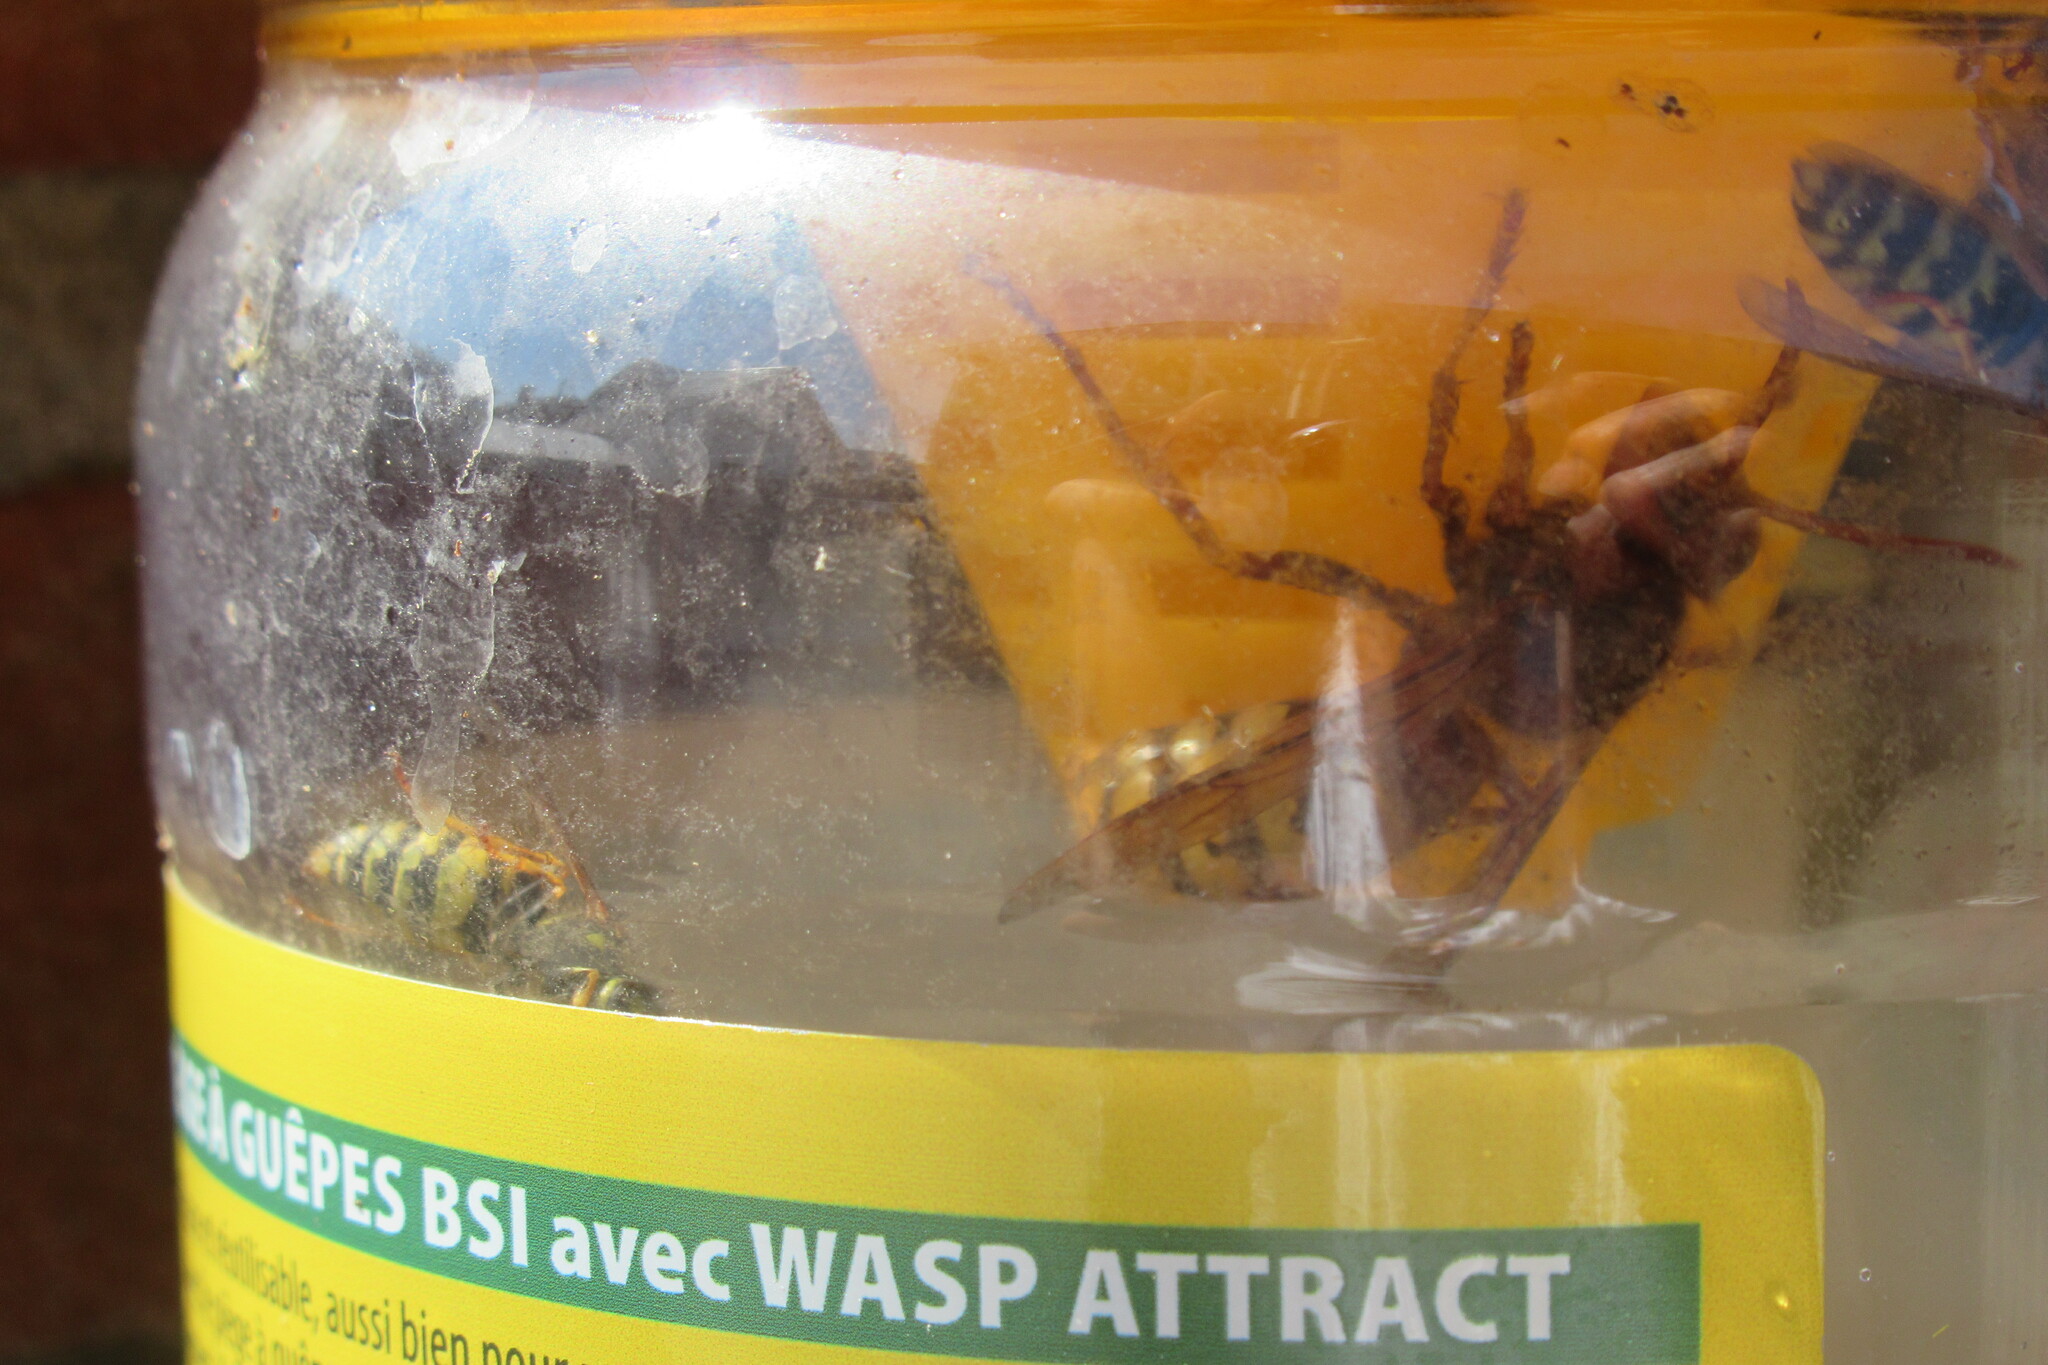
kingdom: Animalia
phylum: Arthropoda
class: Insecta
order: Hymenoptera
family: Vespidae
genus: Vespa
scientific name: Vespa crabro
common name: Hornet
